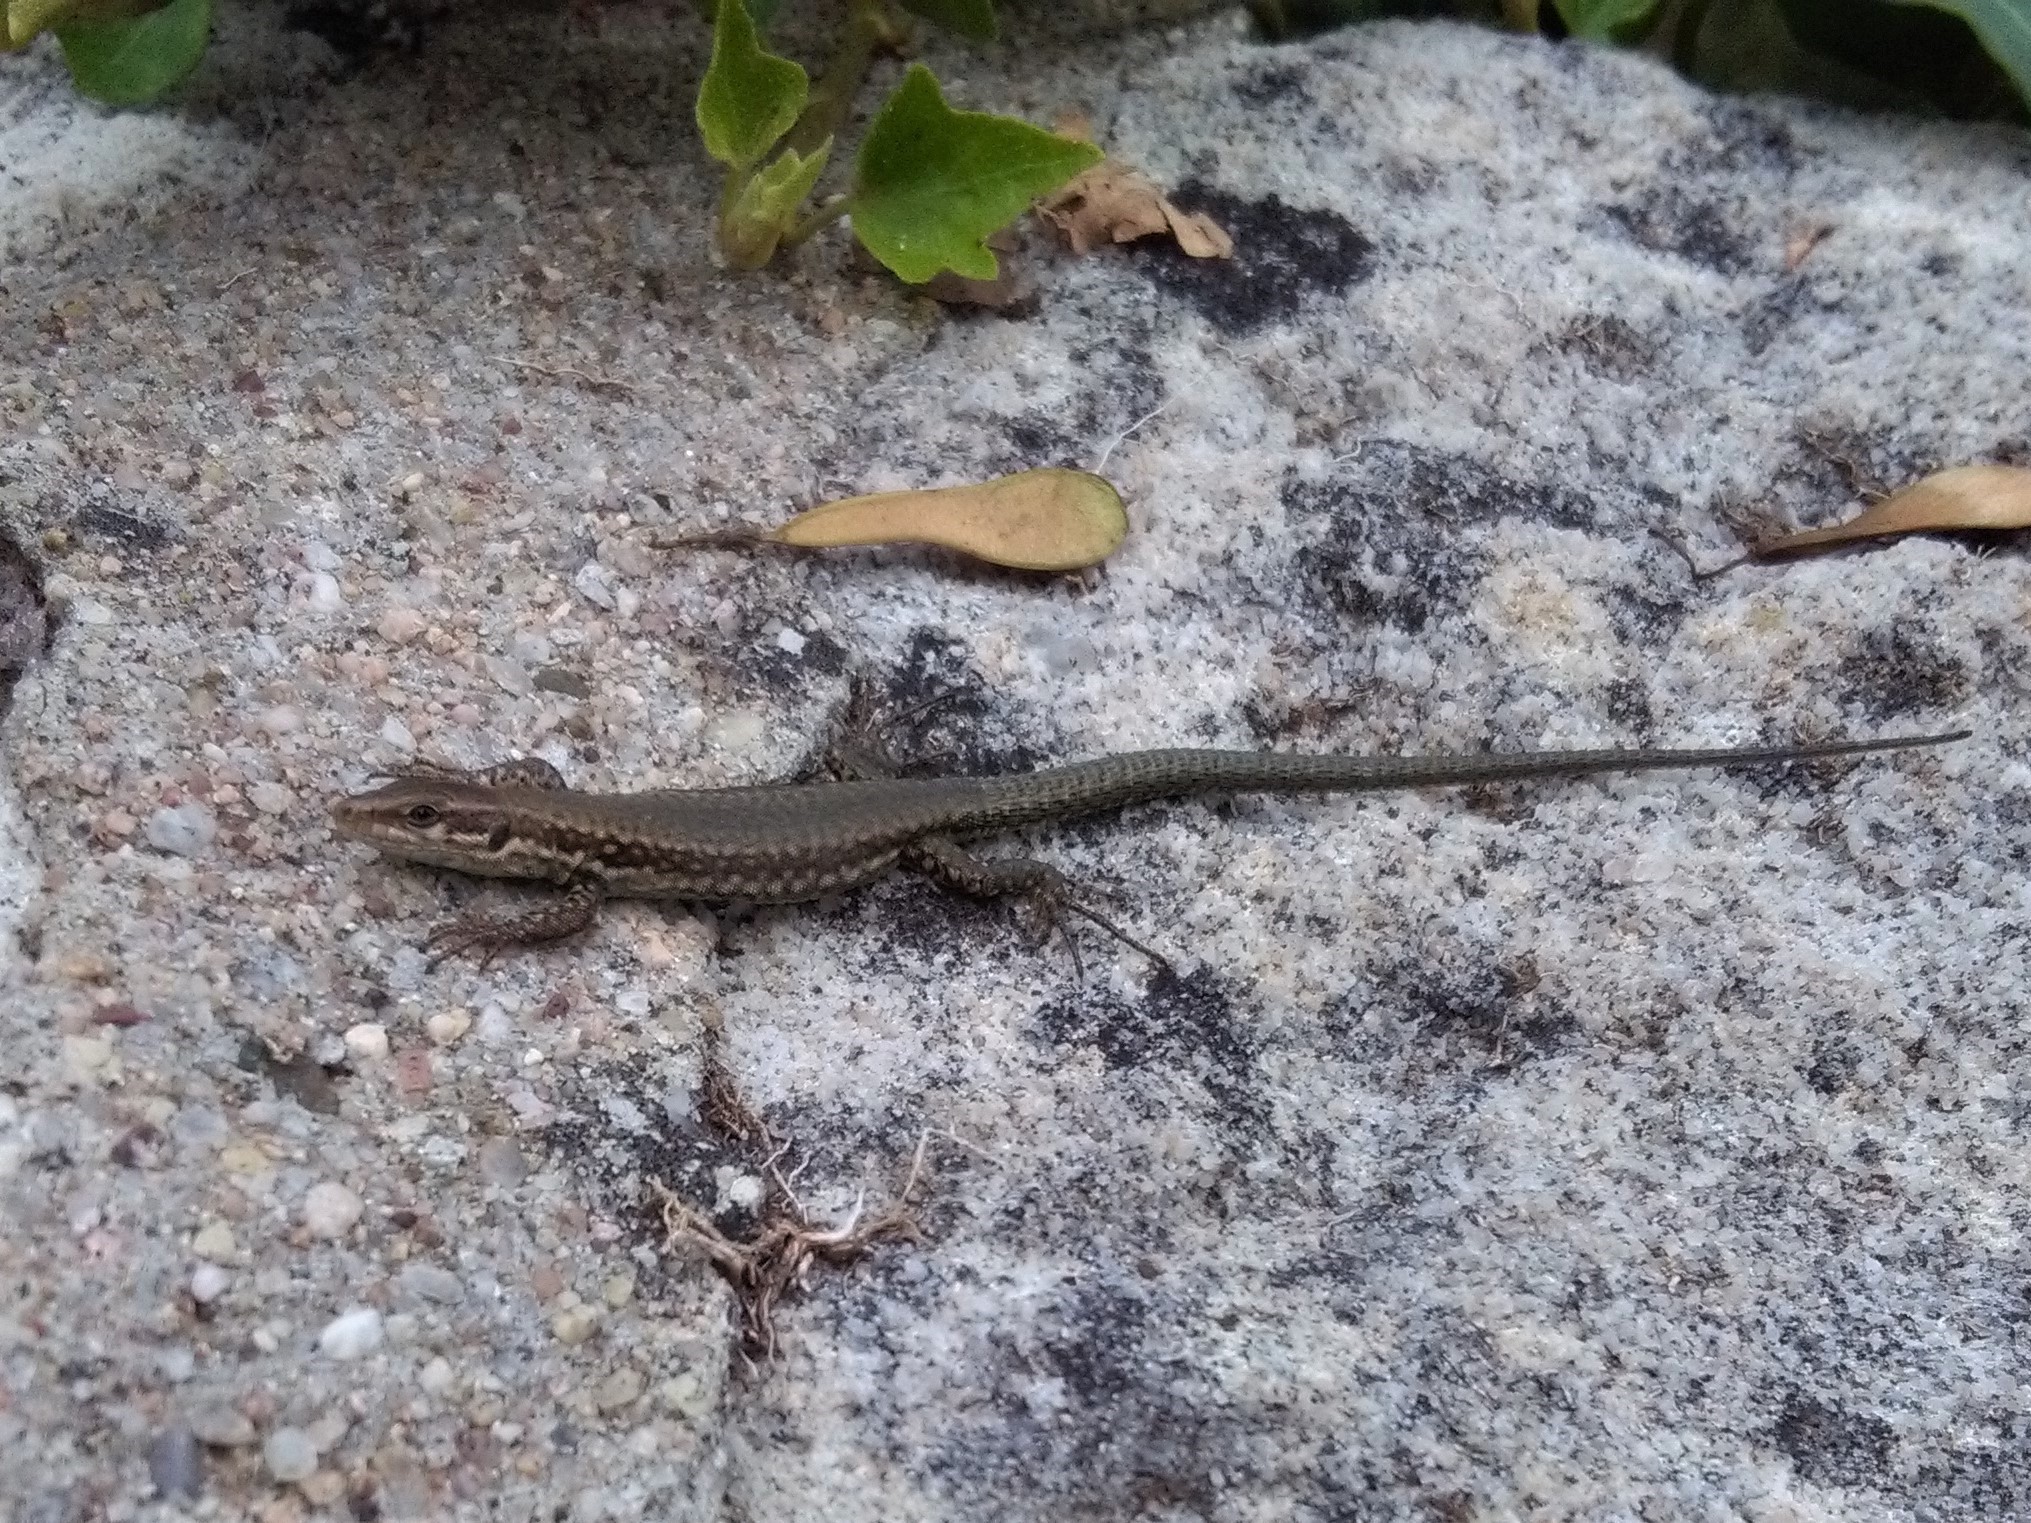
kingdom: Animalia
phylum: Chordata
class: Squamata
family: Lacertidae
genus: Podarcis
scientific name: Podarcis muralis
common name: Common wall lizard
